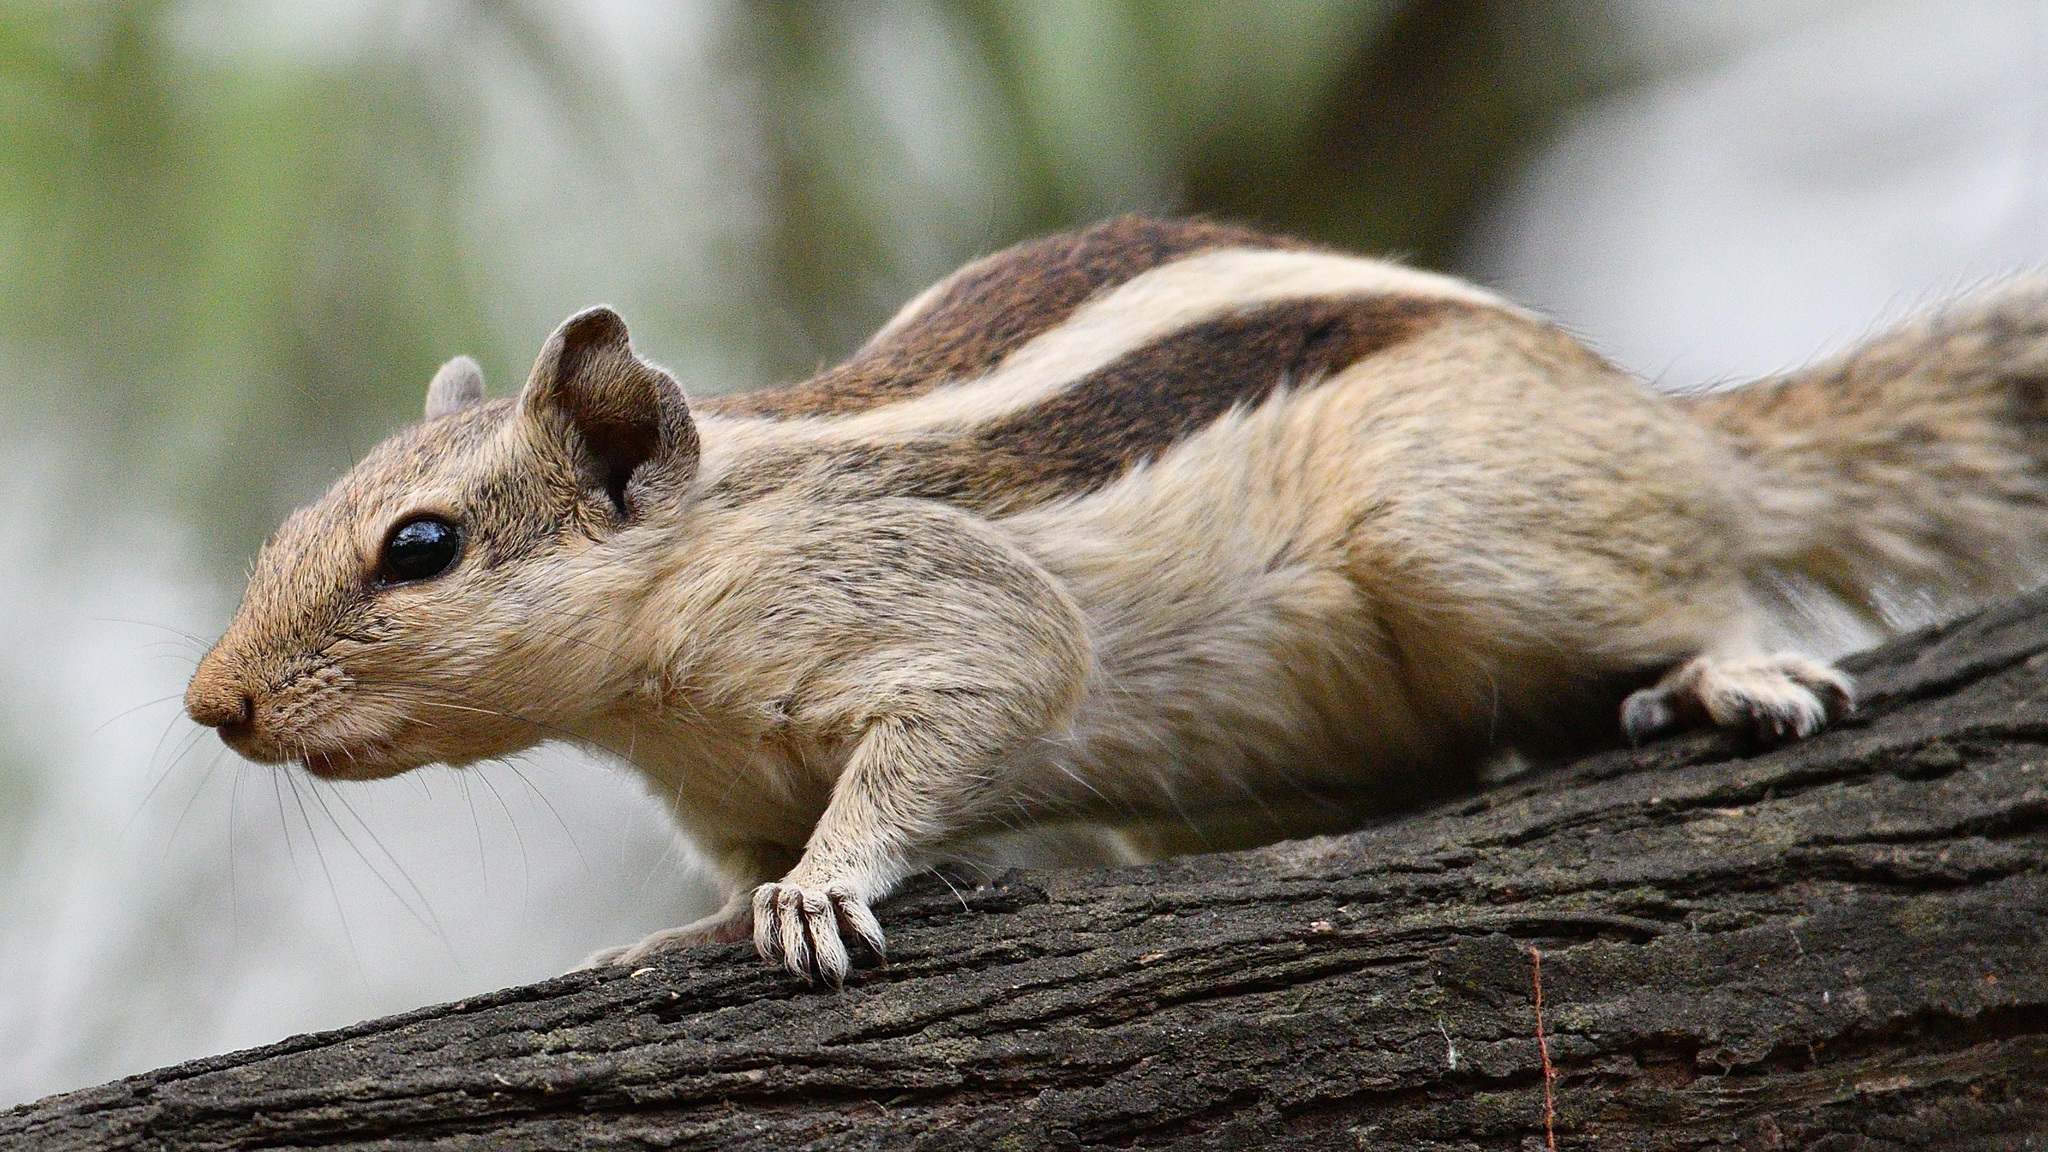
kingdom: Animalia
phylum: Chordata
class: Mammalia
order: Rodentia
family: Sciuridae
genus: Funambulus
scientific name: Funambulus pennantii
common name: Northern palm squirrel
